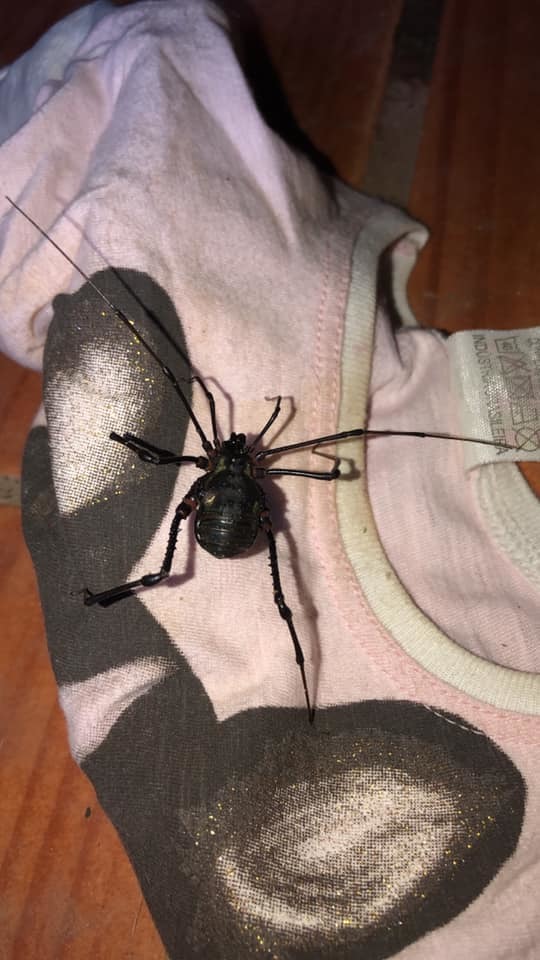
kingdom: Animalia
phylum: Arthropoda
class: Arachnida
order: Opiliones
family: Gonyleptidae
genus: Geraeocormobius
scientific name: Geraeocormobius rohri
